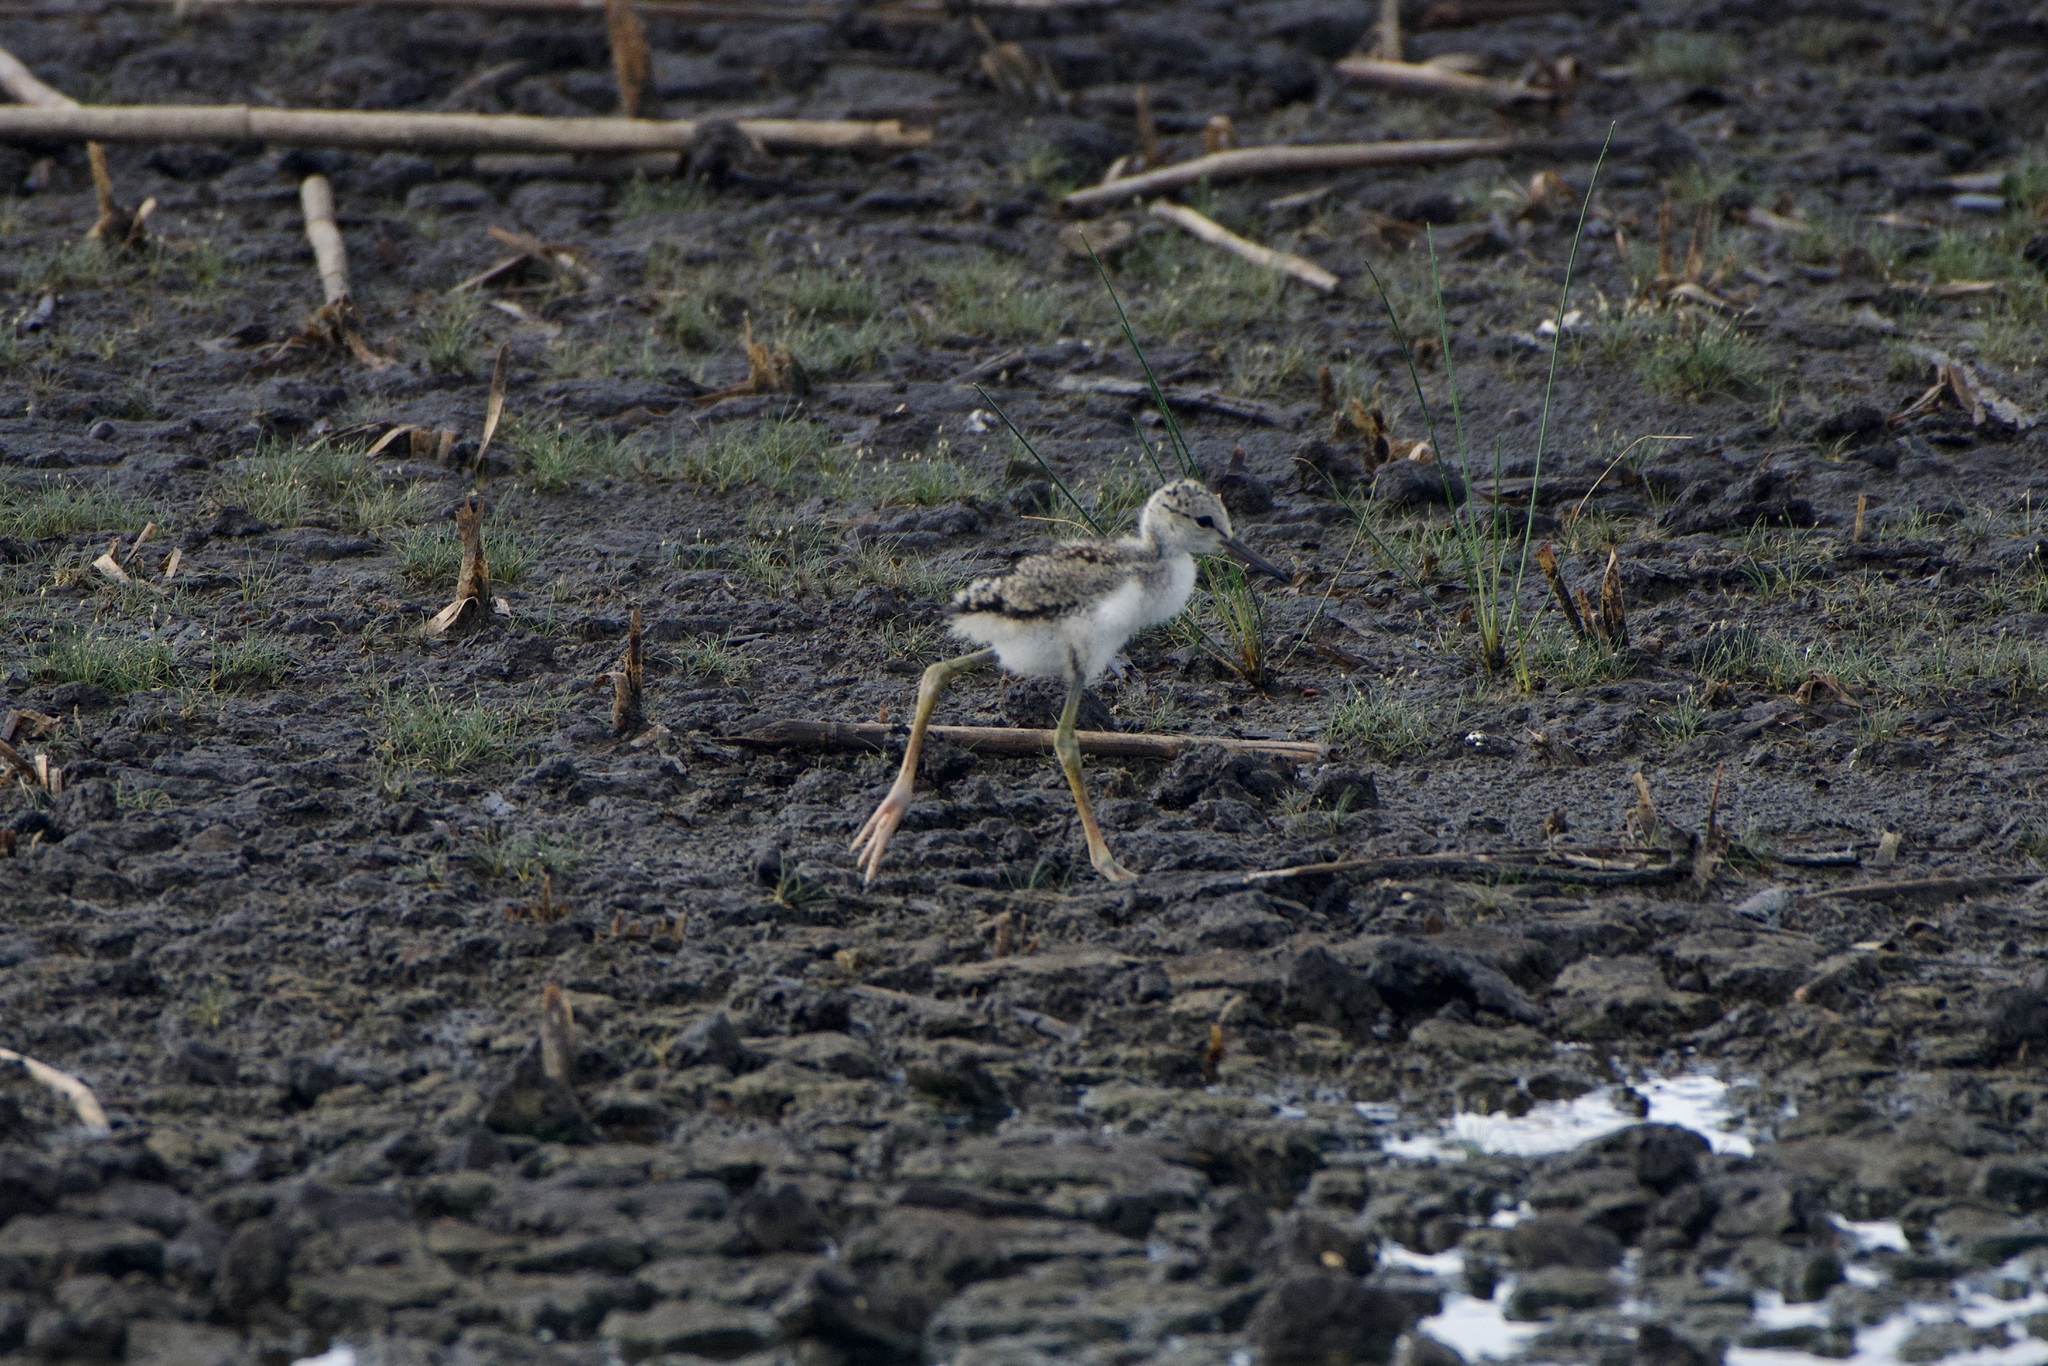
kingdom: Animalia
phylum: Chordata
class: Aves
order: Charadriiformes
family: Recurvirostridae
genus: Himantopus
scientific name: Himantopus mexicanus
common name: Black-necked stilt
